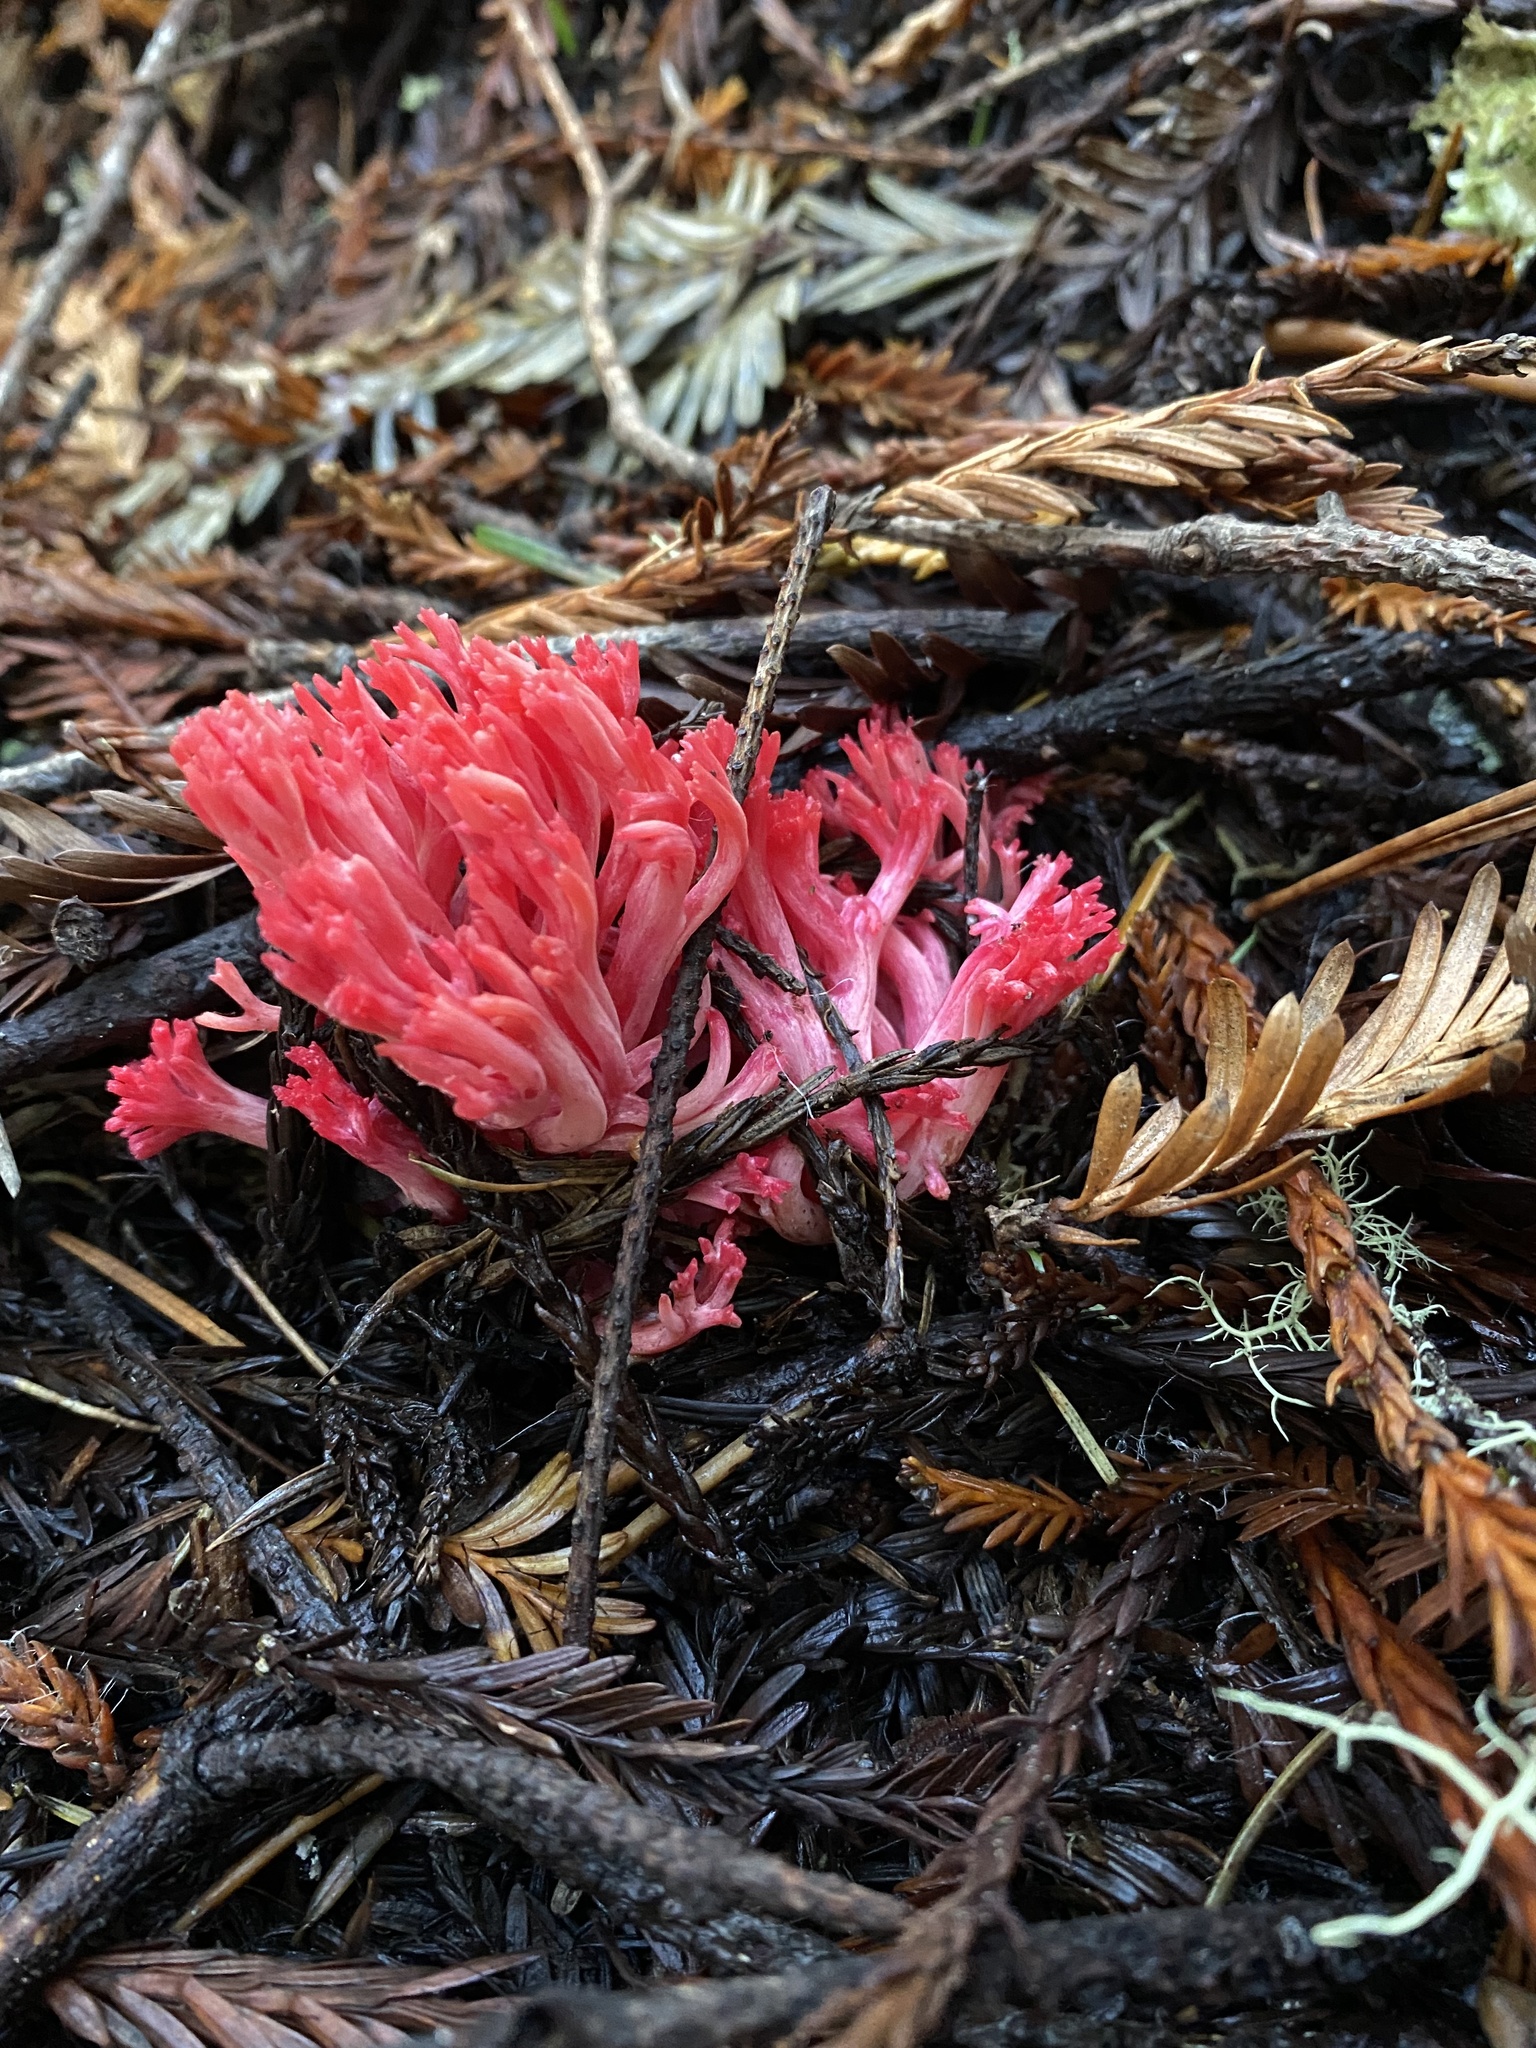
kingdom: Fungi
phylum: Basidiomycota
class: Agaricomycetes
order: Gomphales
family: Gomphaceae
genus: Ramaria
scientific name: Ramaria araiospora
